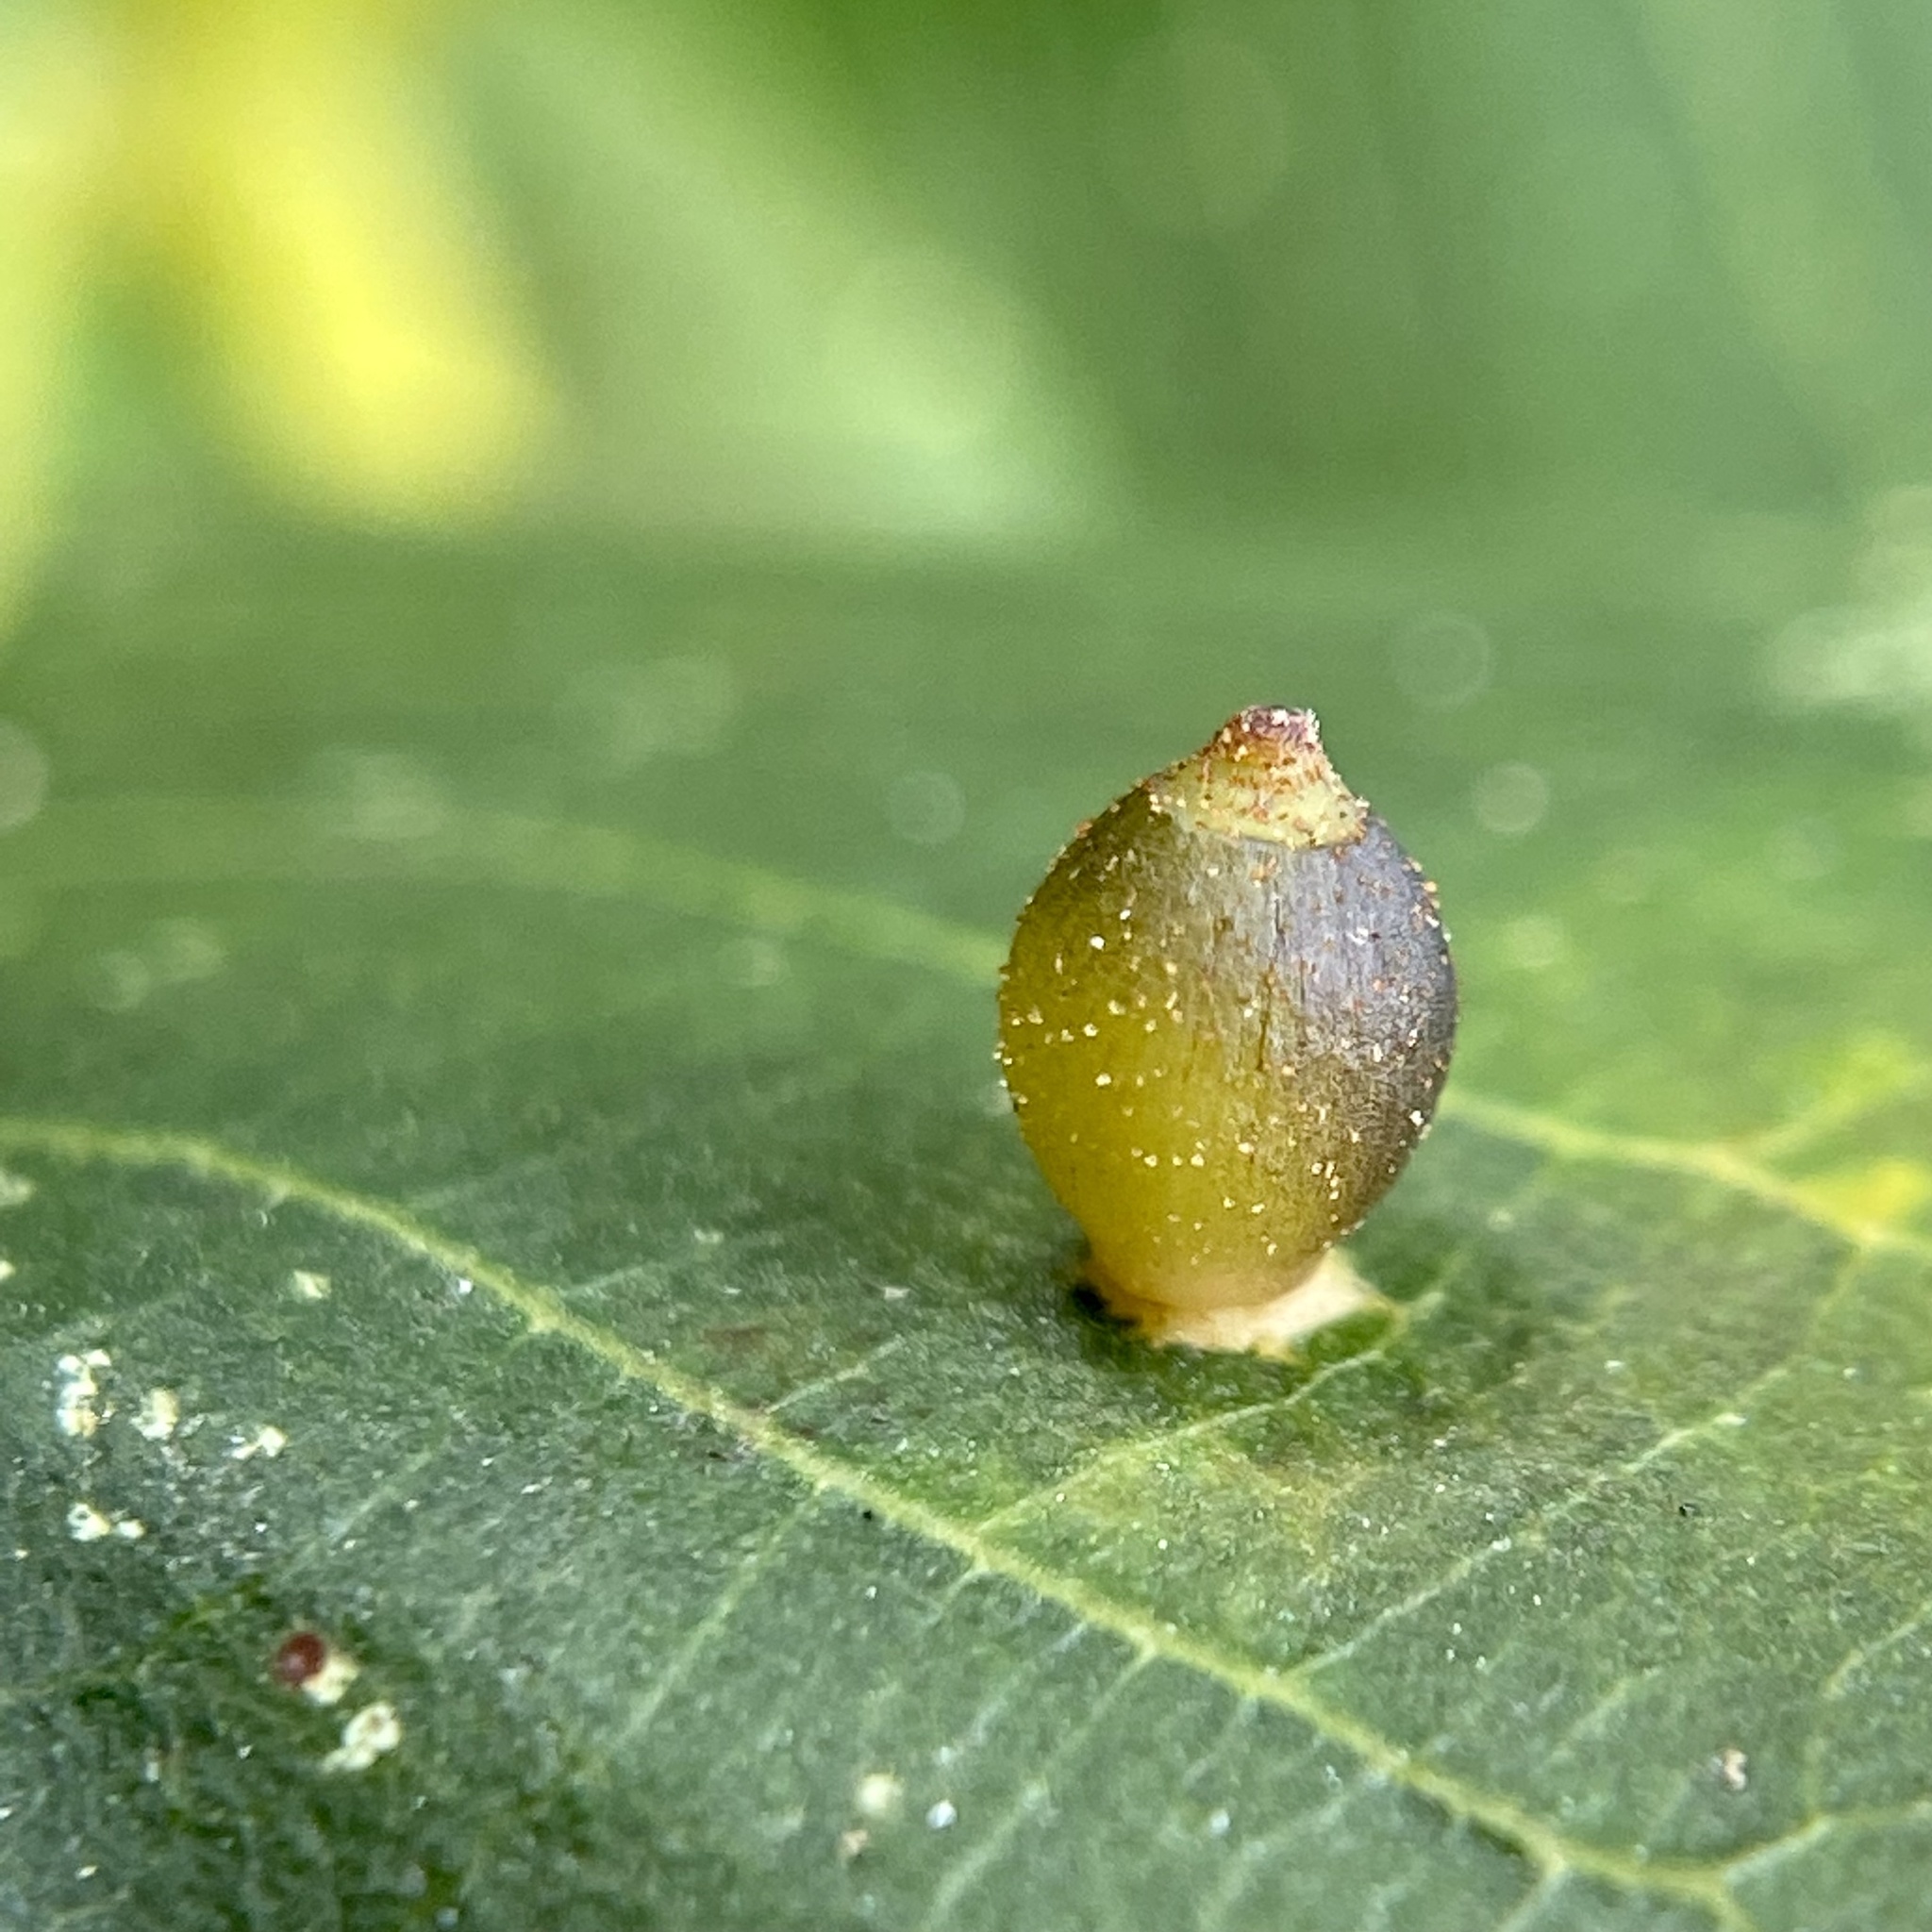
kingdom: Animalia
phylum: Arthropoda
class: Insecta
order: Diptera
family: Cecidomyiidae
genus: Caryomyia
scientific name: Caryomyia viscidolium
